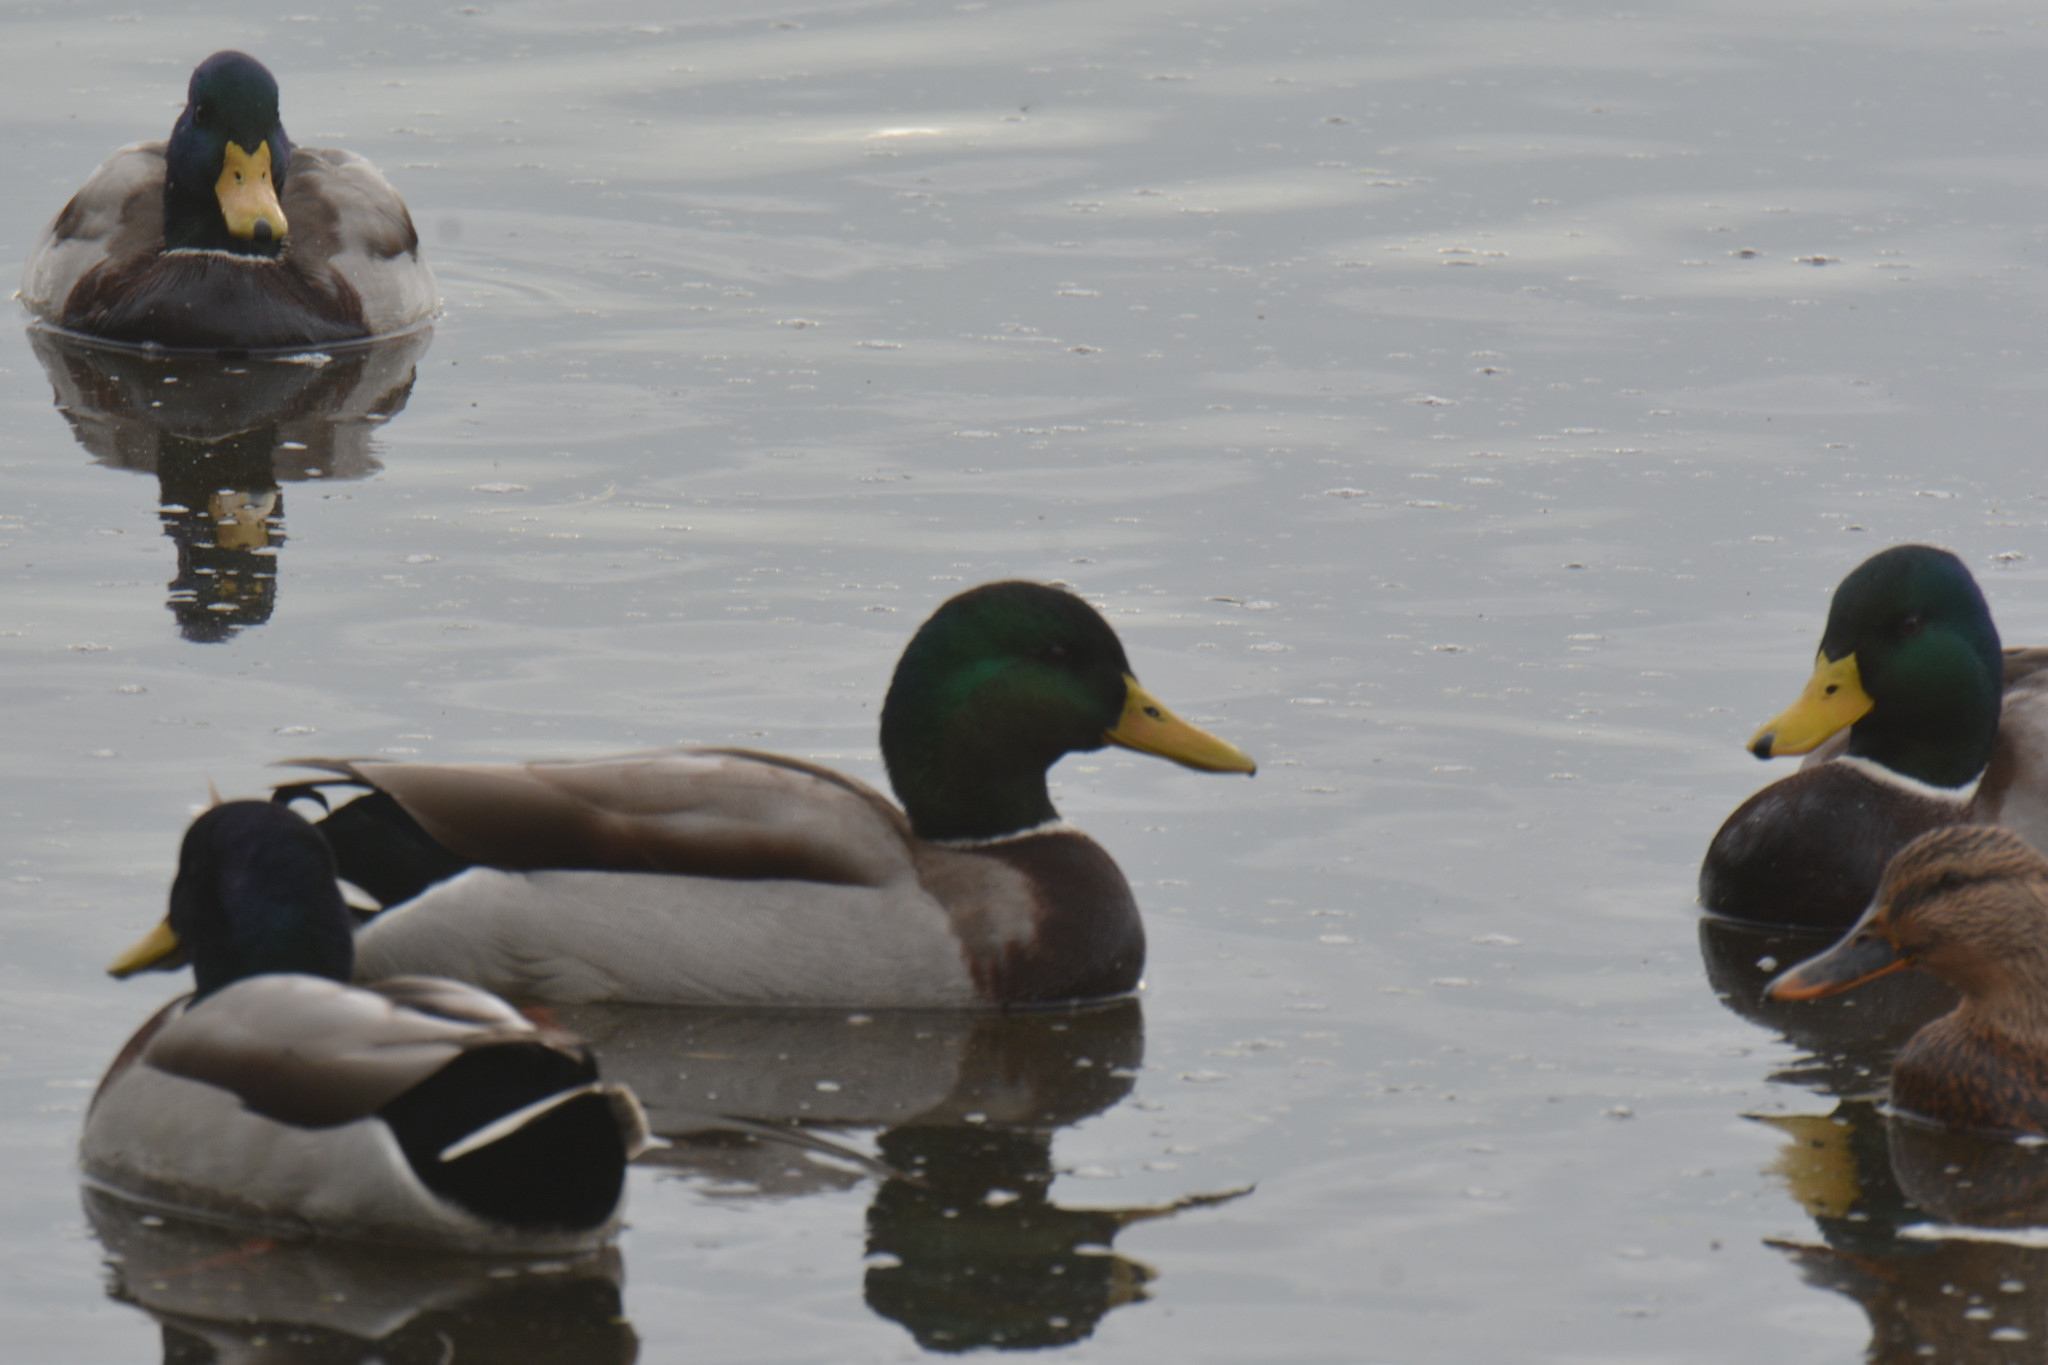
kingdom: Animalia
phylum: Chordata
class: Aves
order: Anseriformes
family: Anatidae
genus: Anas
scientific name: Anas platyrhynchos
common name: Mallard
